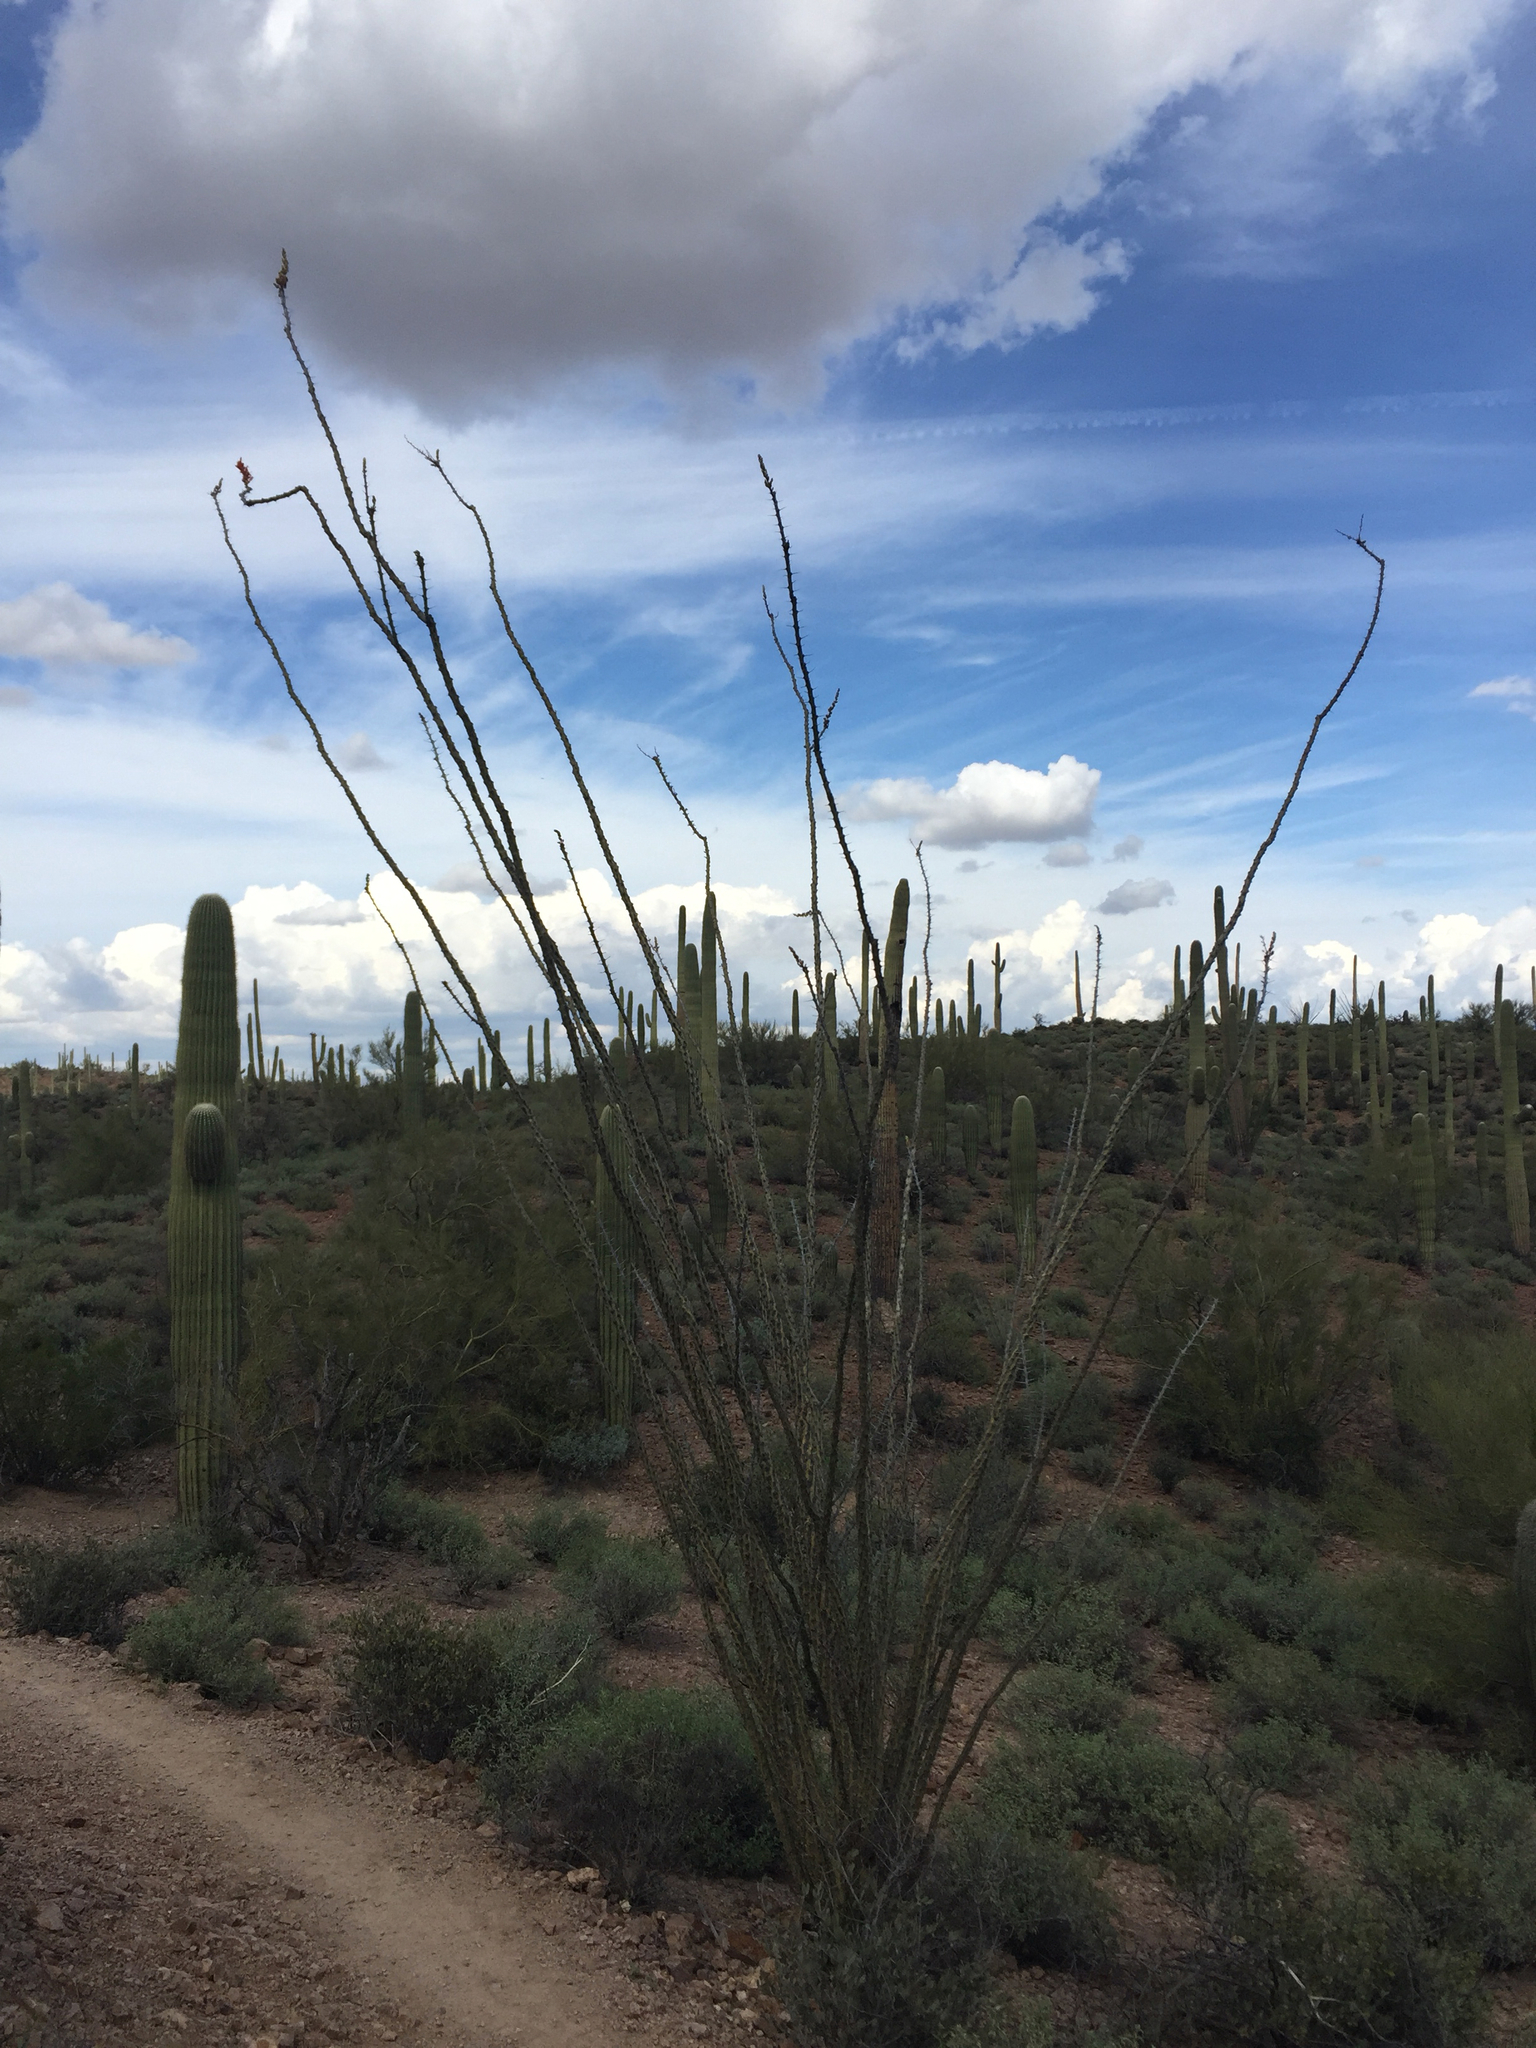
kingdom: Plantae
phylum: Tracheophyta
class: Magnoliopsida
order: Ericales
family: Fouquieriaceae
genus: Fouquieria
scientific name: Fouquieria splendens
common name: Vine-cactus
